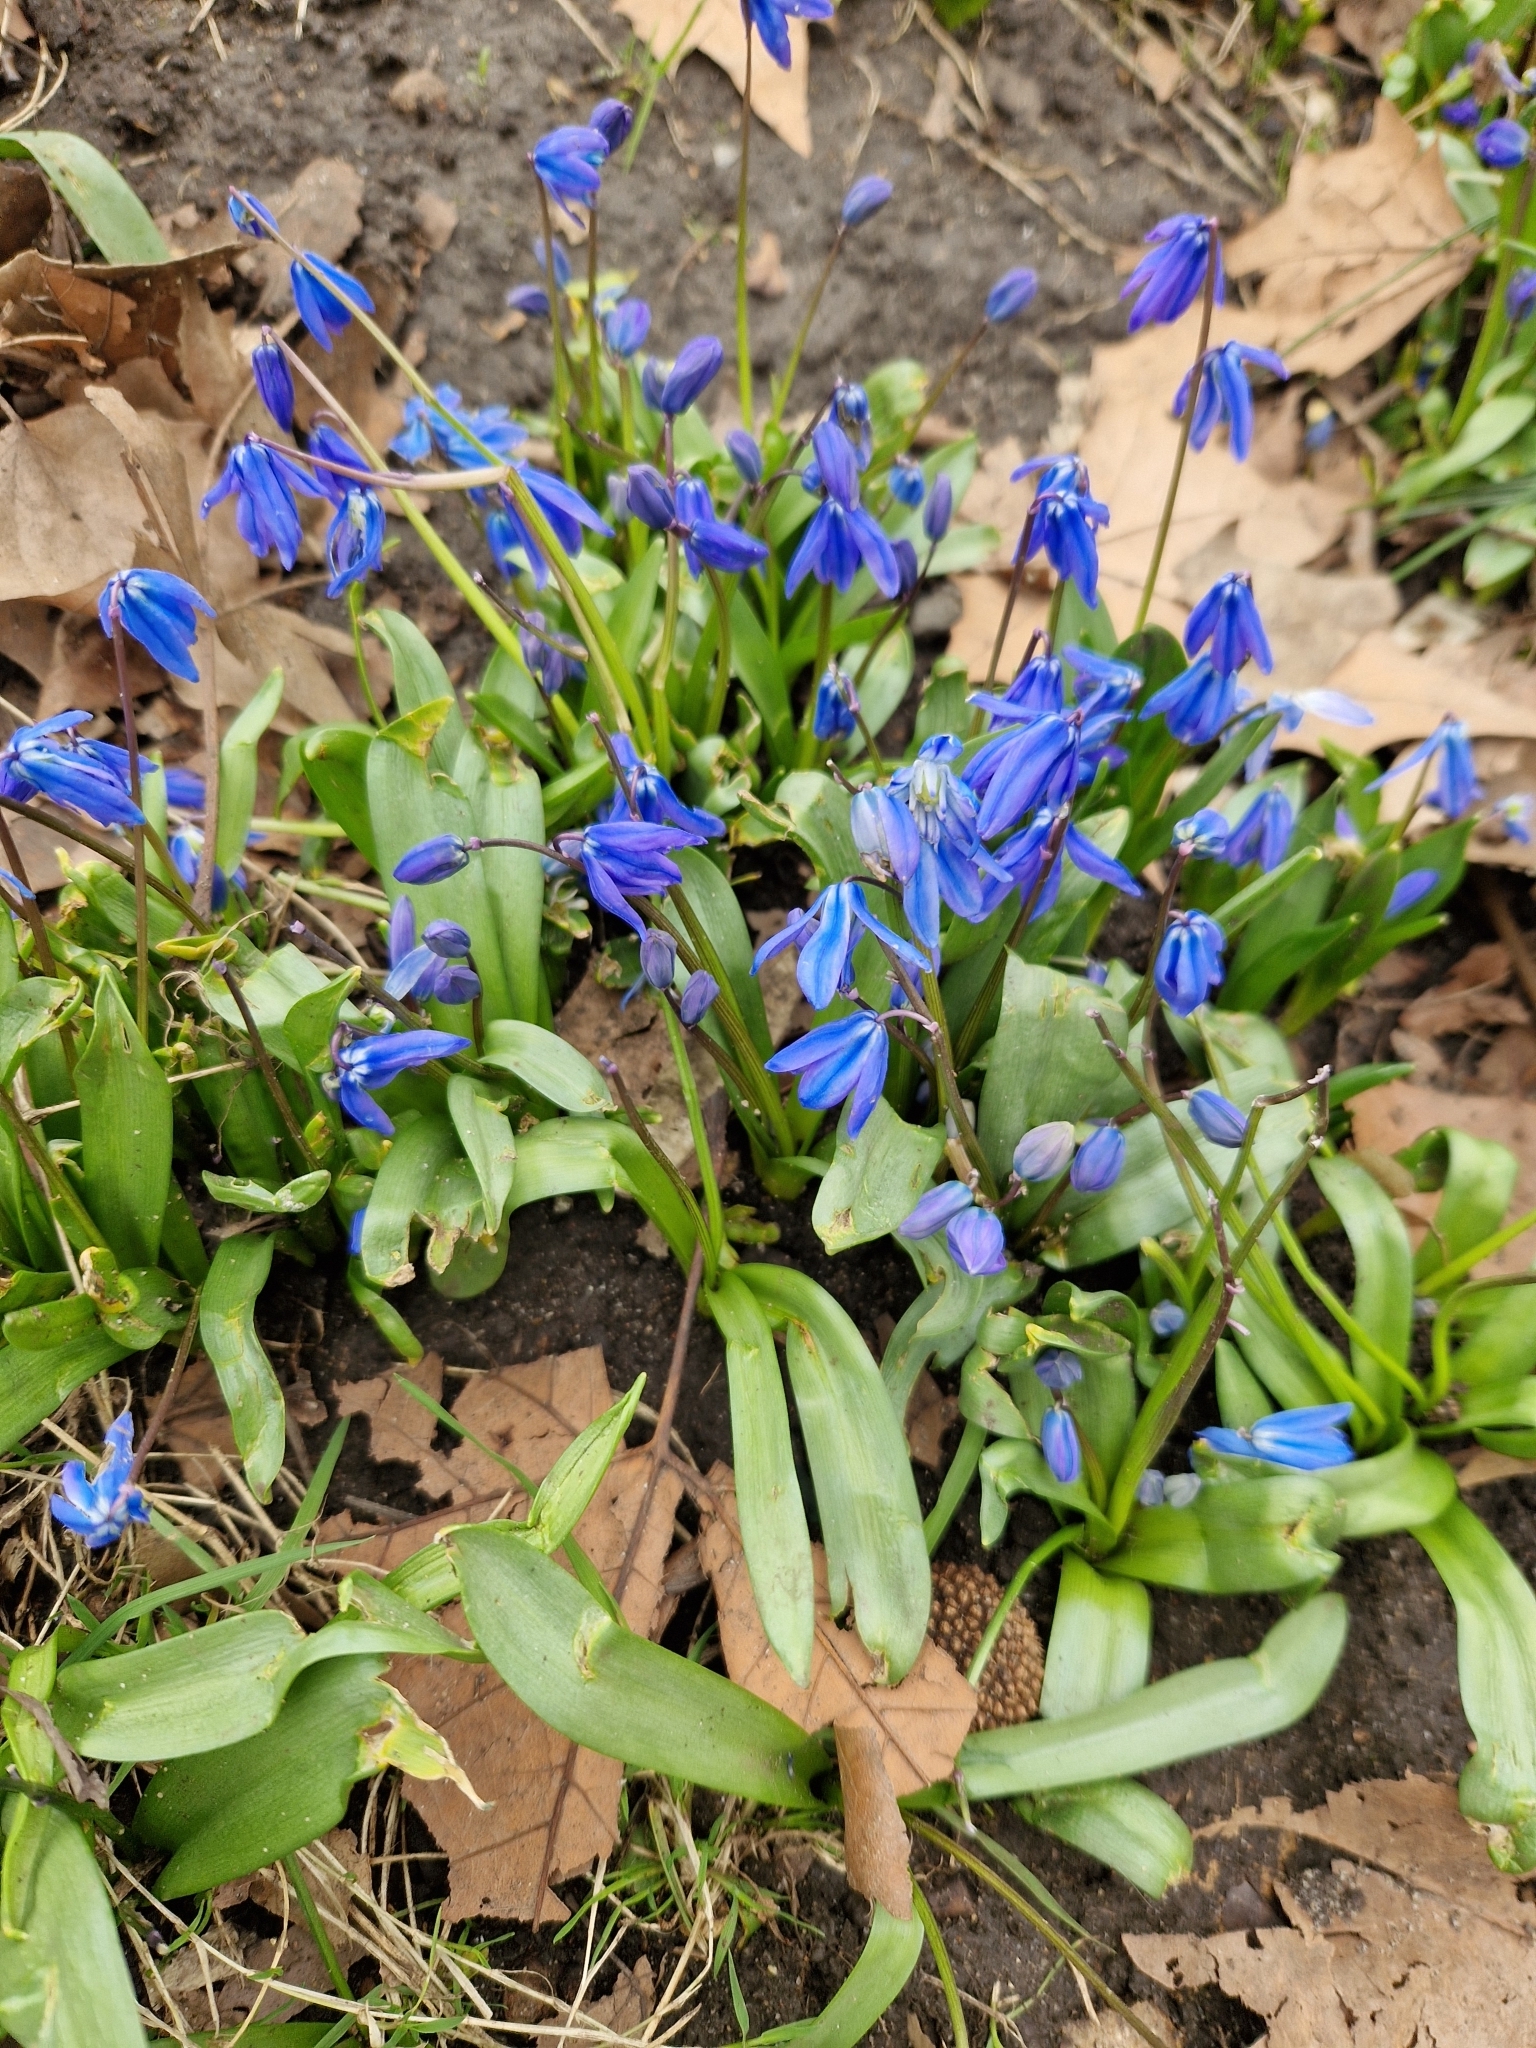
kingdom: Plantae
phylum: Tracheophyta
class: Liliopsida
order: Asparagales
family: Asparagaceae
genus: Scilla
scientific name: Scilla siberica
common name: Siberian squill
